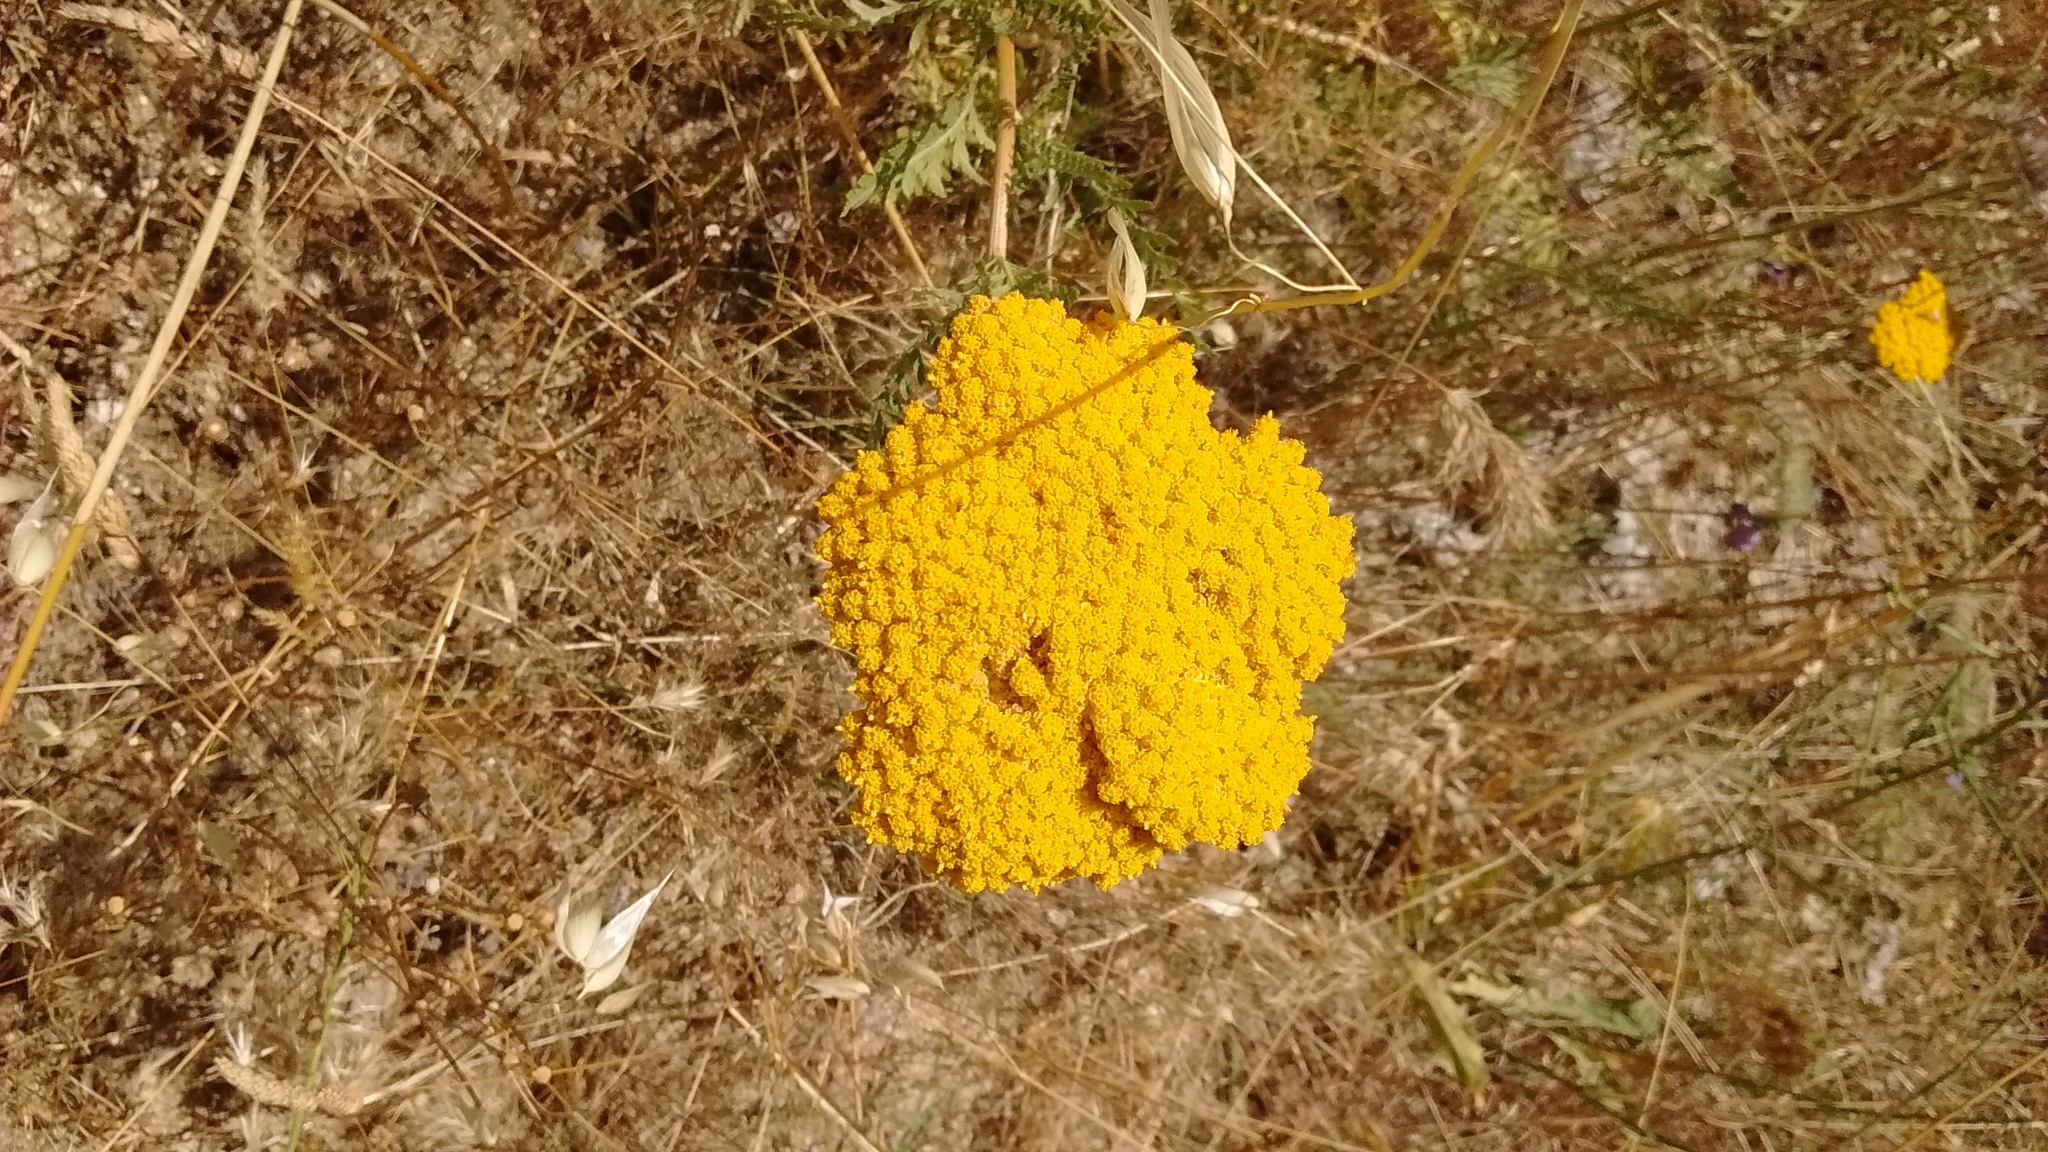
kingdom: Plantae
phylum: Tracheophyta
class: Magnoliopsida
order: Asterales
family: Asteraceae
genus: Achillea
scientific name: Achillea filipendulina
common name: Fernleaf yarrow
